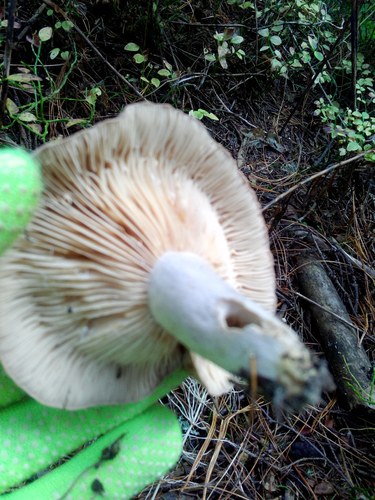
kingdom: Fungi
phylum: Basidiomycota
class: Agaricomycetes
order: Agaricales
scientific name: Agaricales
